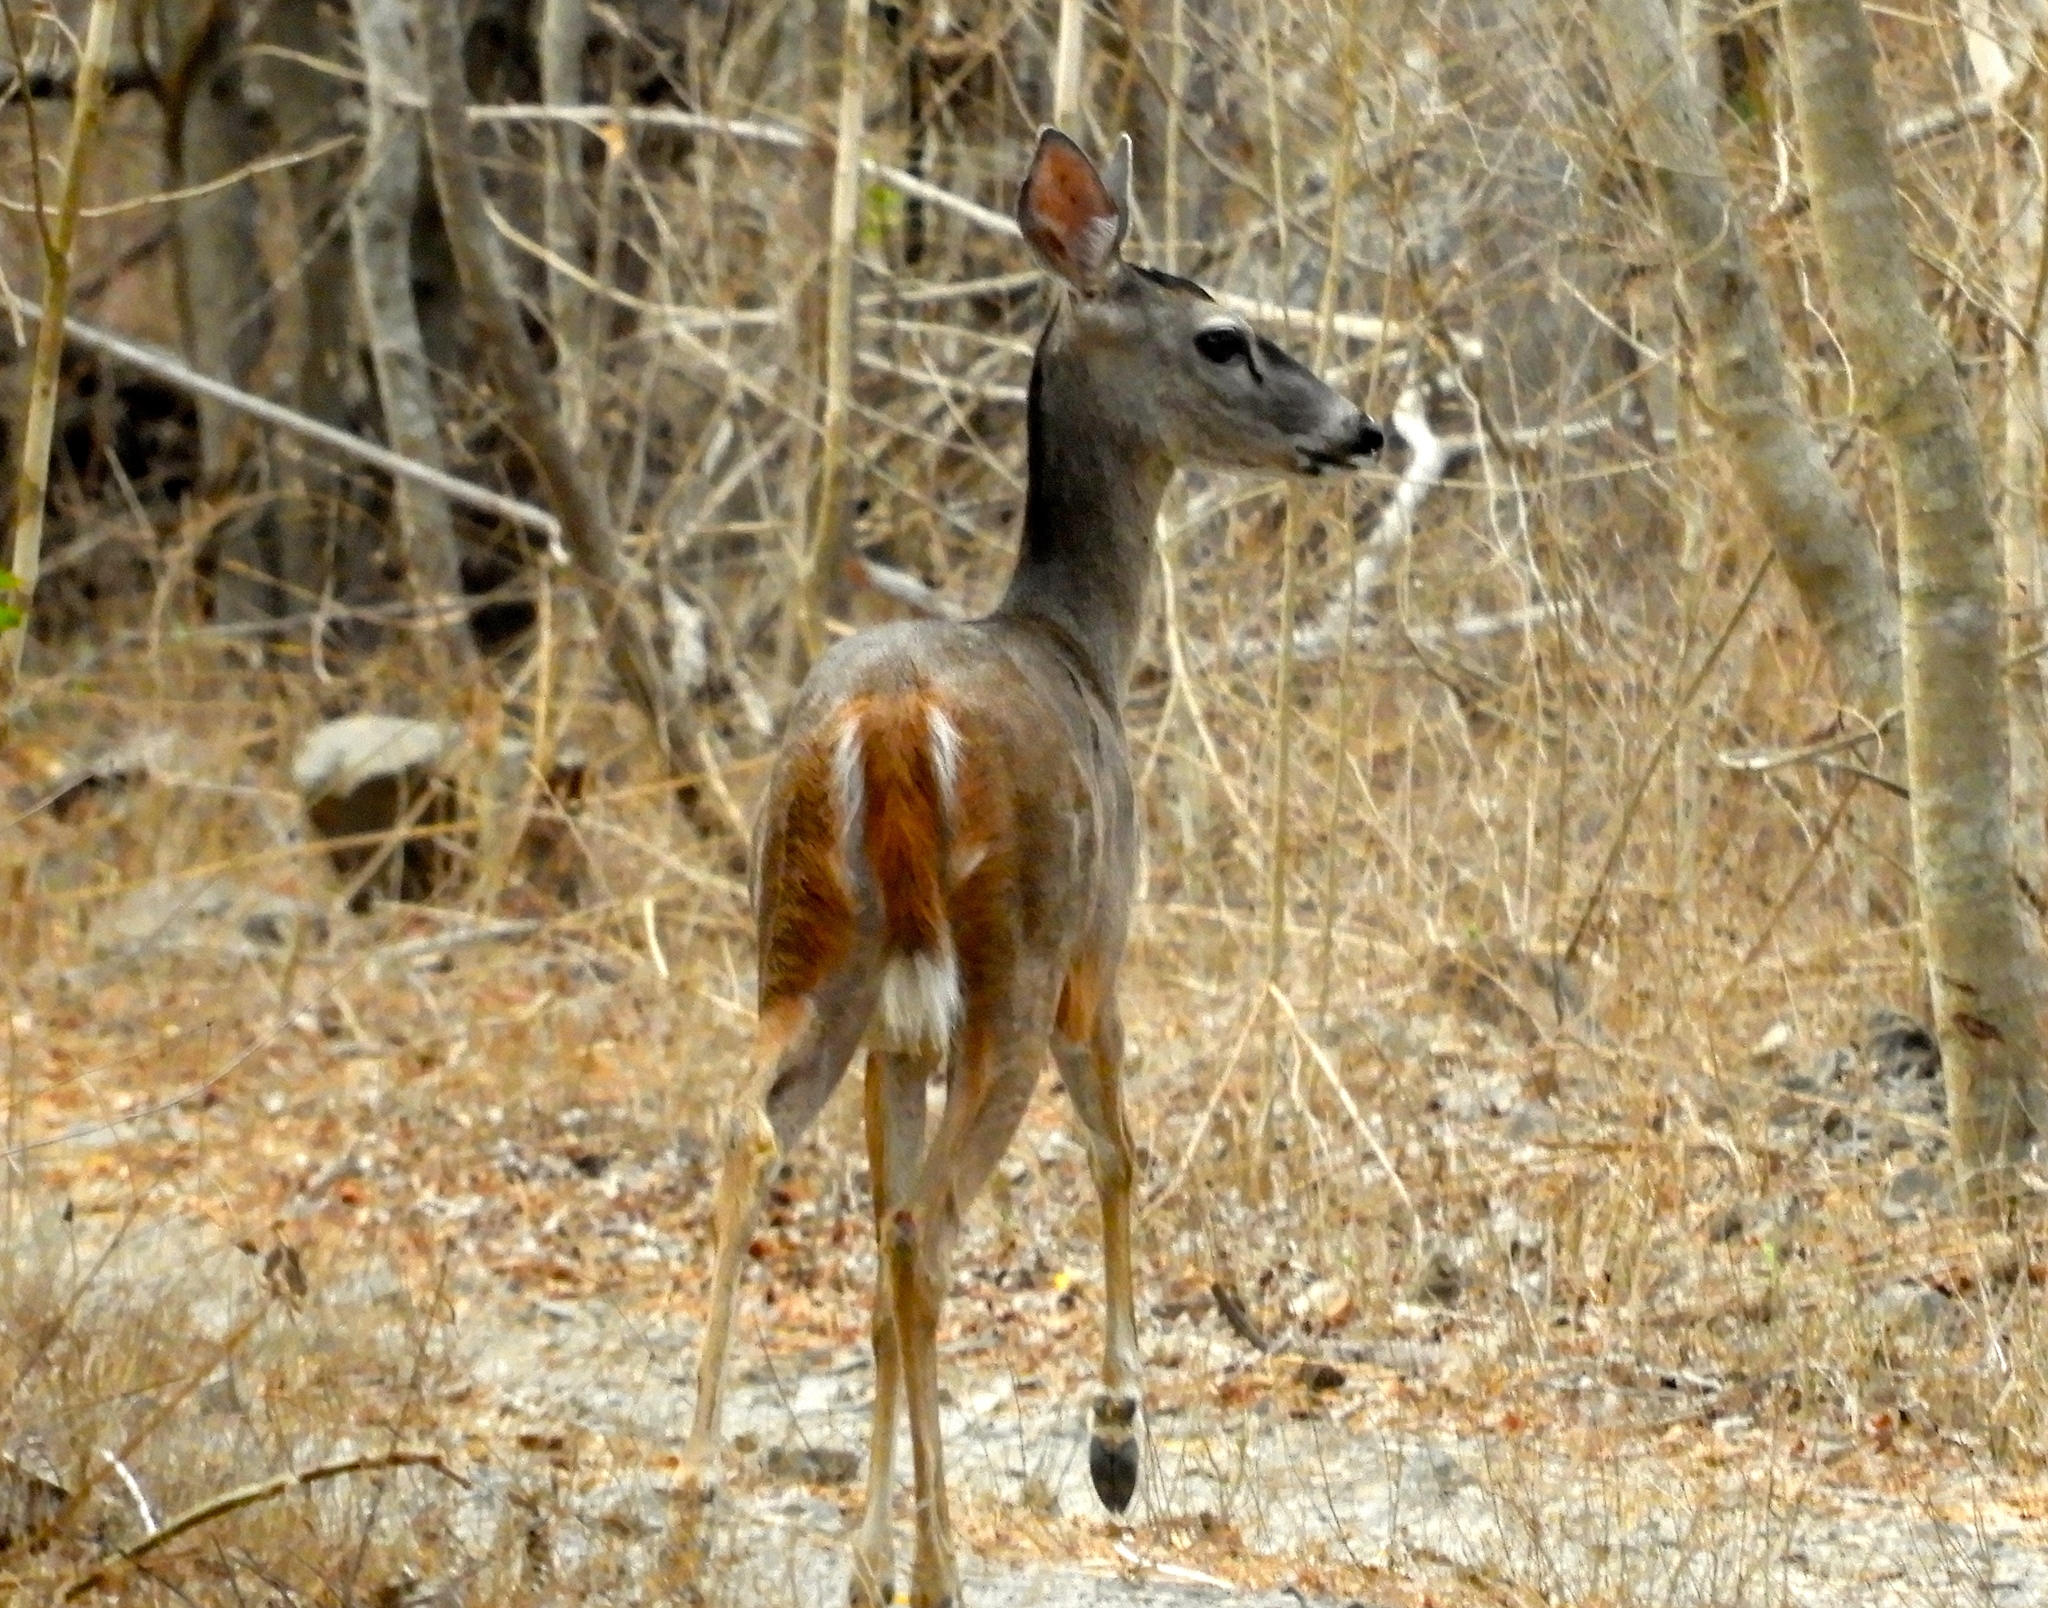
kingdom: Animalia
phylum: Chordata
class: Mammalia
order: Artiodactyla
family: Cervidae
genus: Odocoileus
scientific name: Odocoileus virginianus
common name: White-tailed deer
